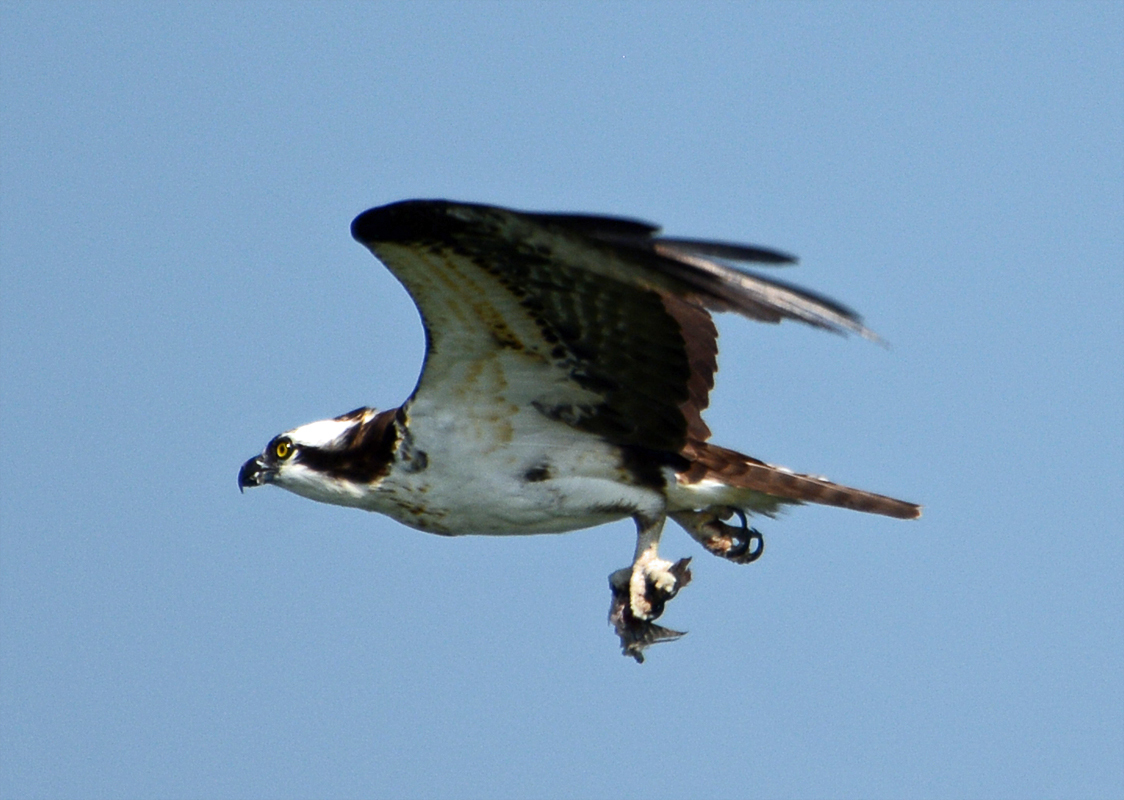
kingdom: Animalia
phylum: Chordata
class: Aves
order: Accipitriformes
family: Pandionidae
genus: Pandion
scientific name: Pandion haliaetus
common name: Osprey
